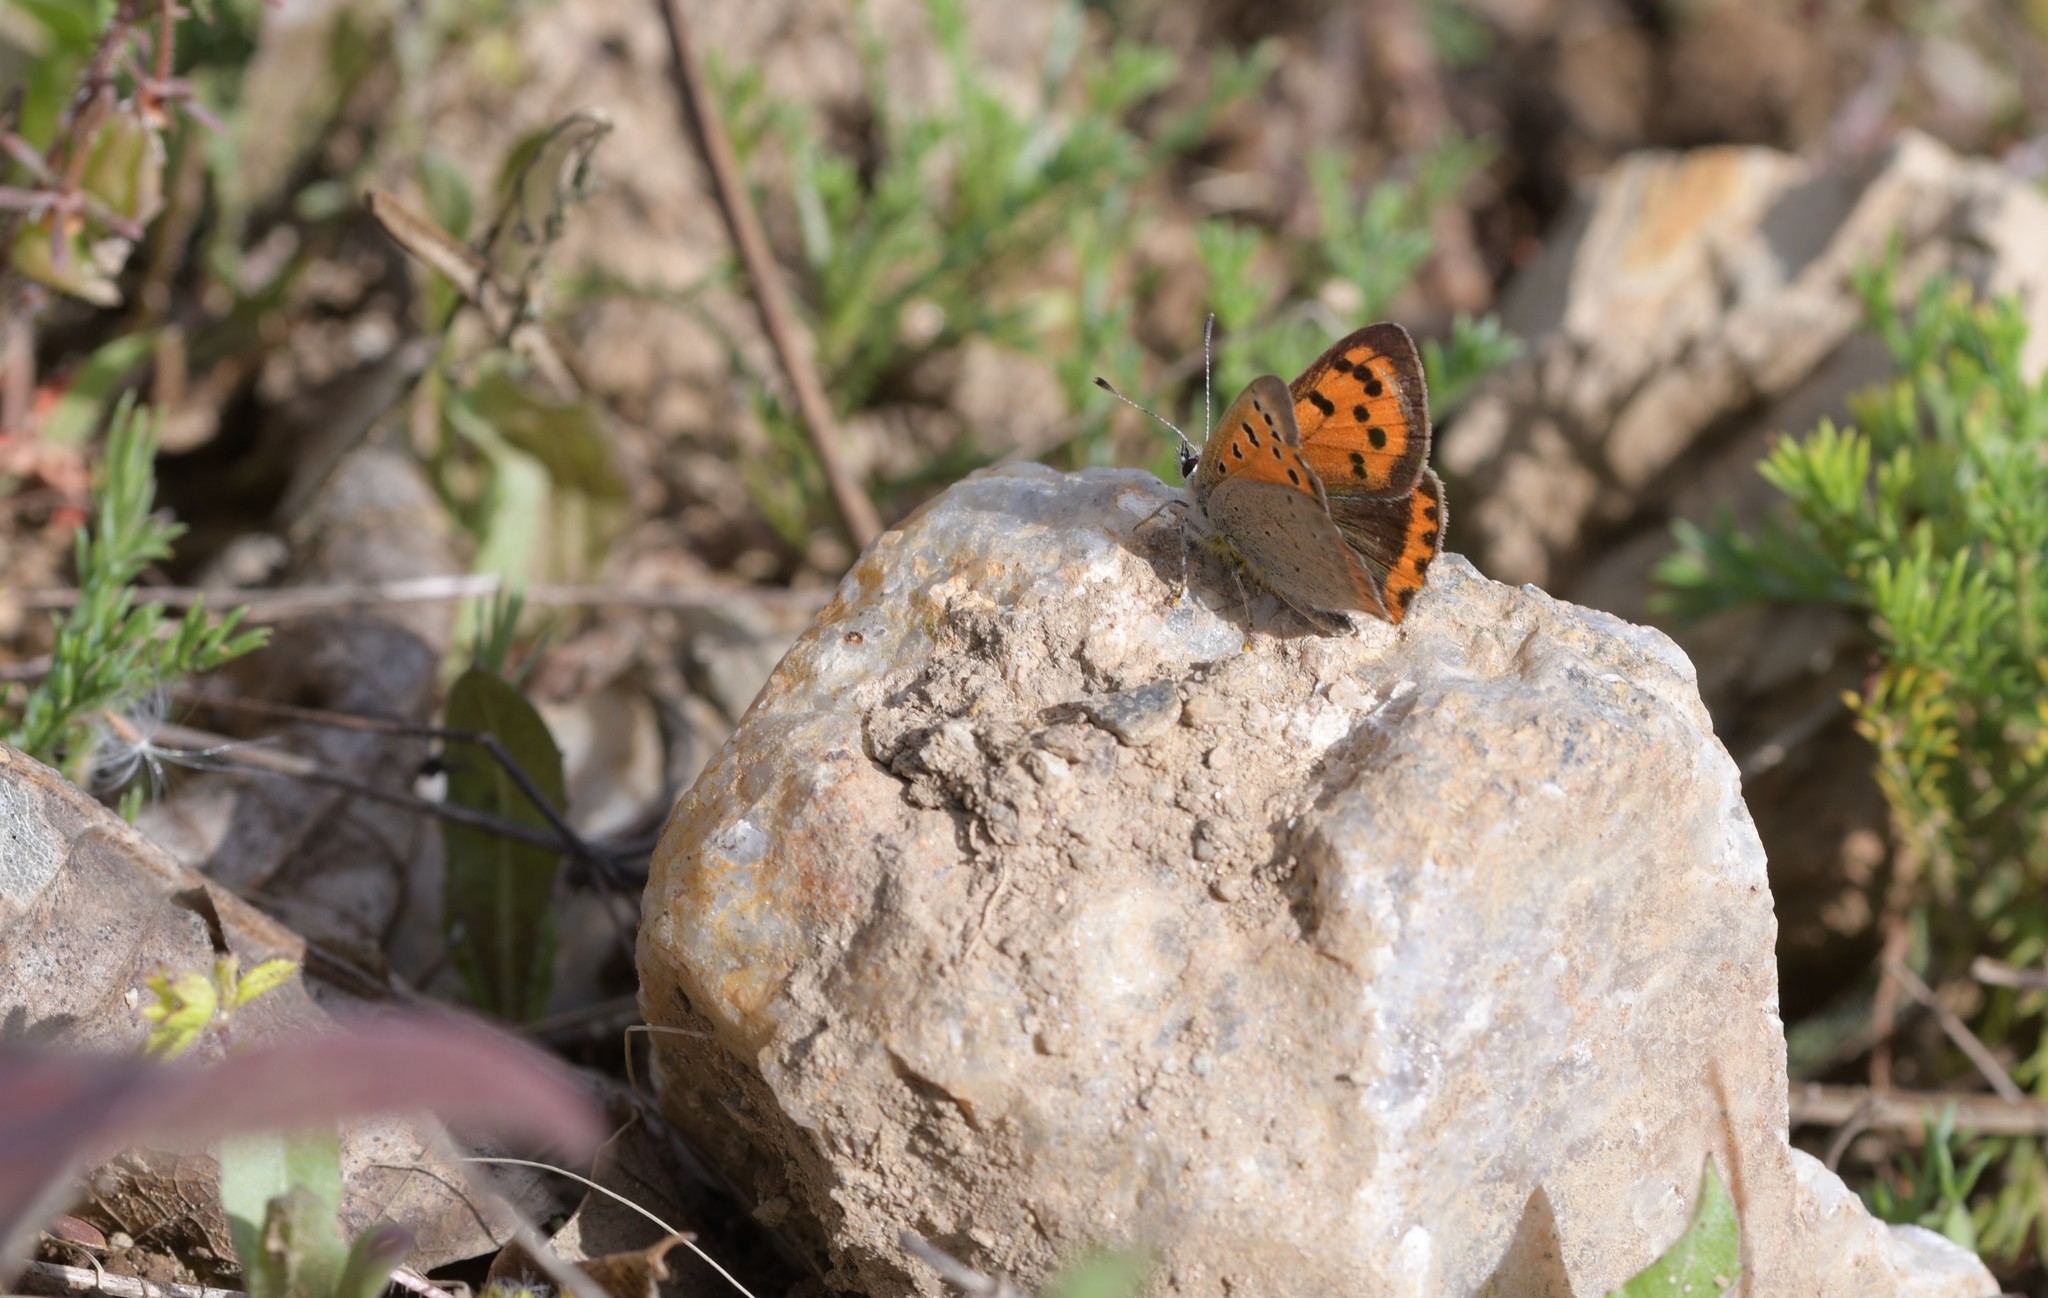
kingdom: Animalia
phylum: Arthropoda
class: Insecta
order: Lepidoptera
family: Lycaenidae
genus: Lycaena
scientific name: Lycaena phlaeas
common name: Small copper
